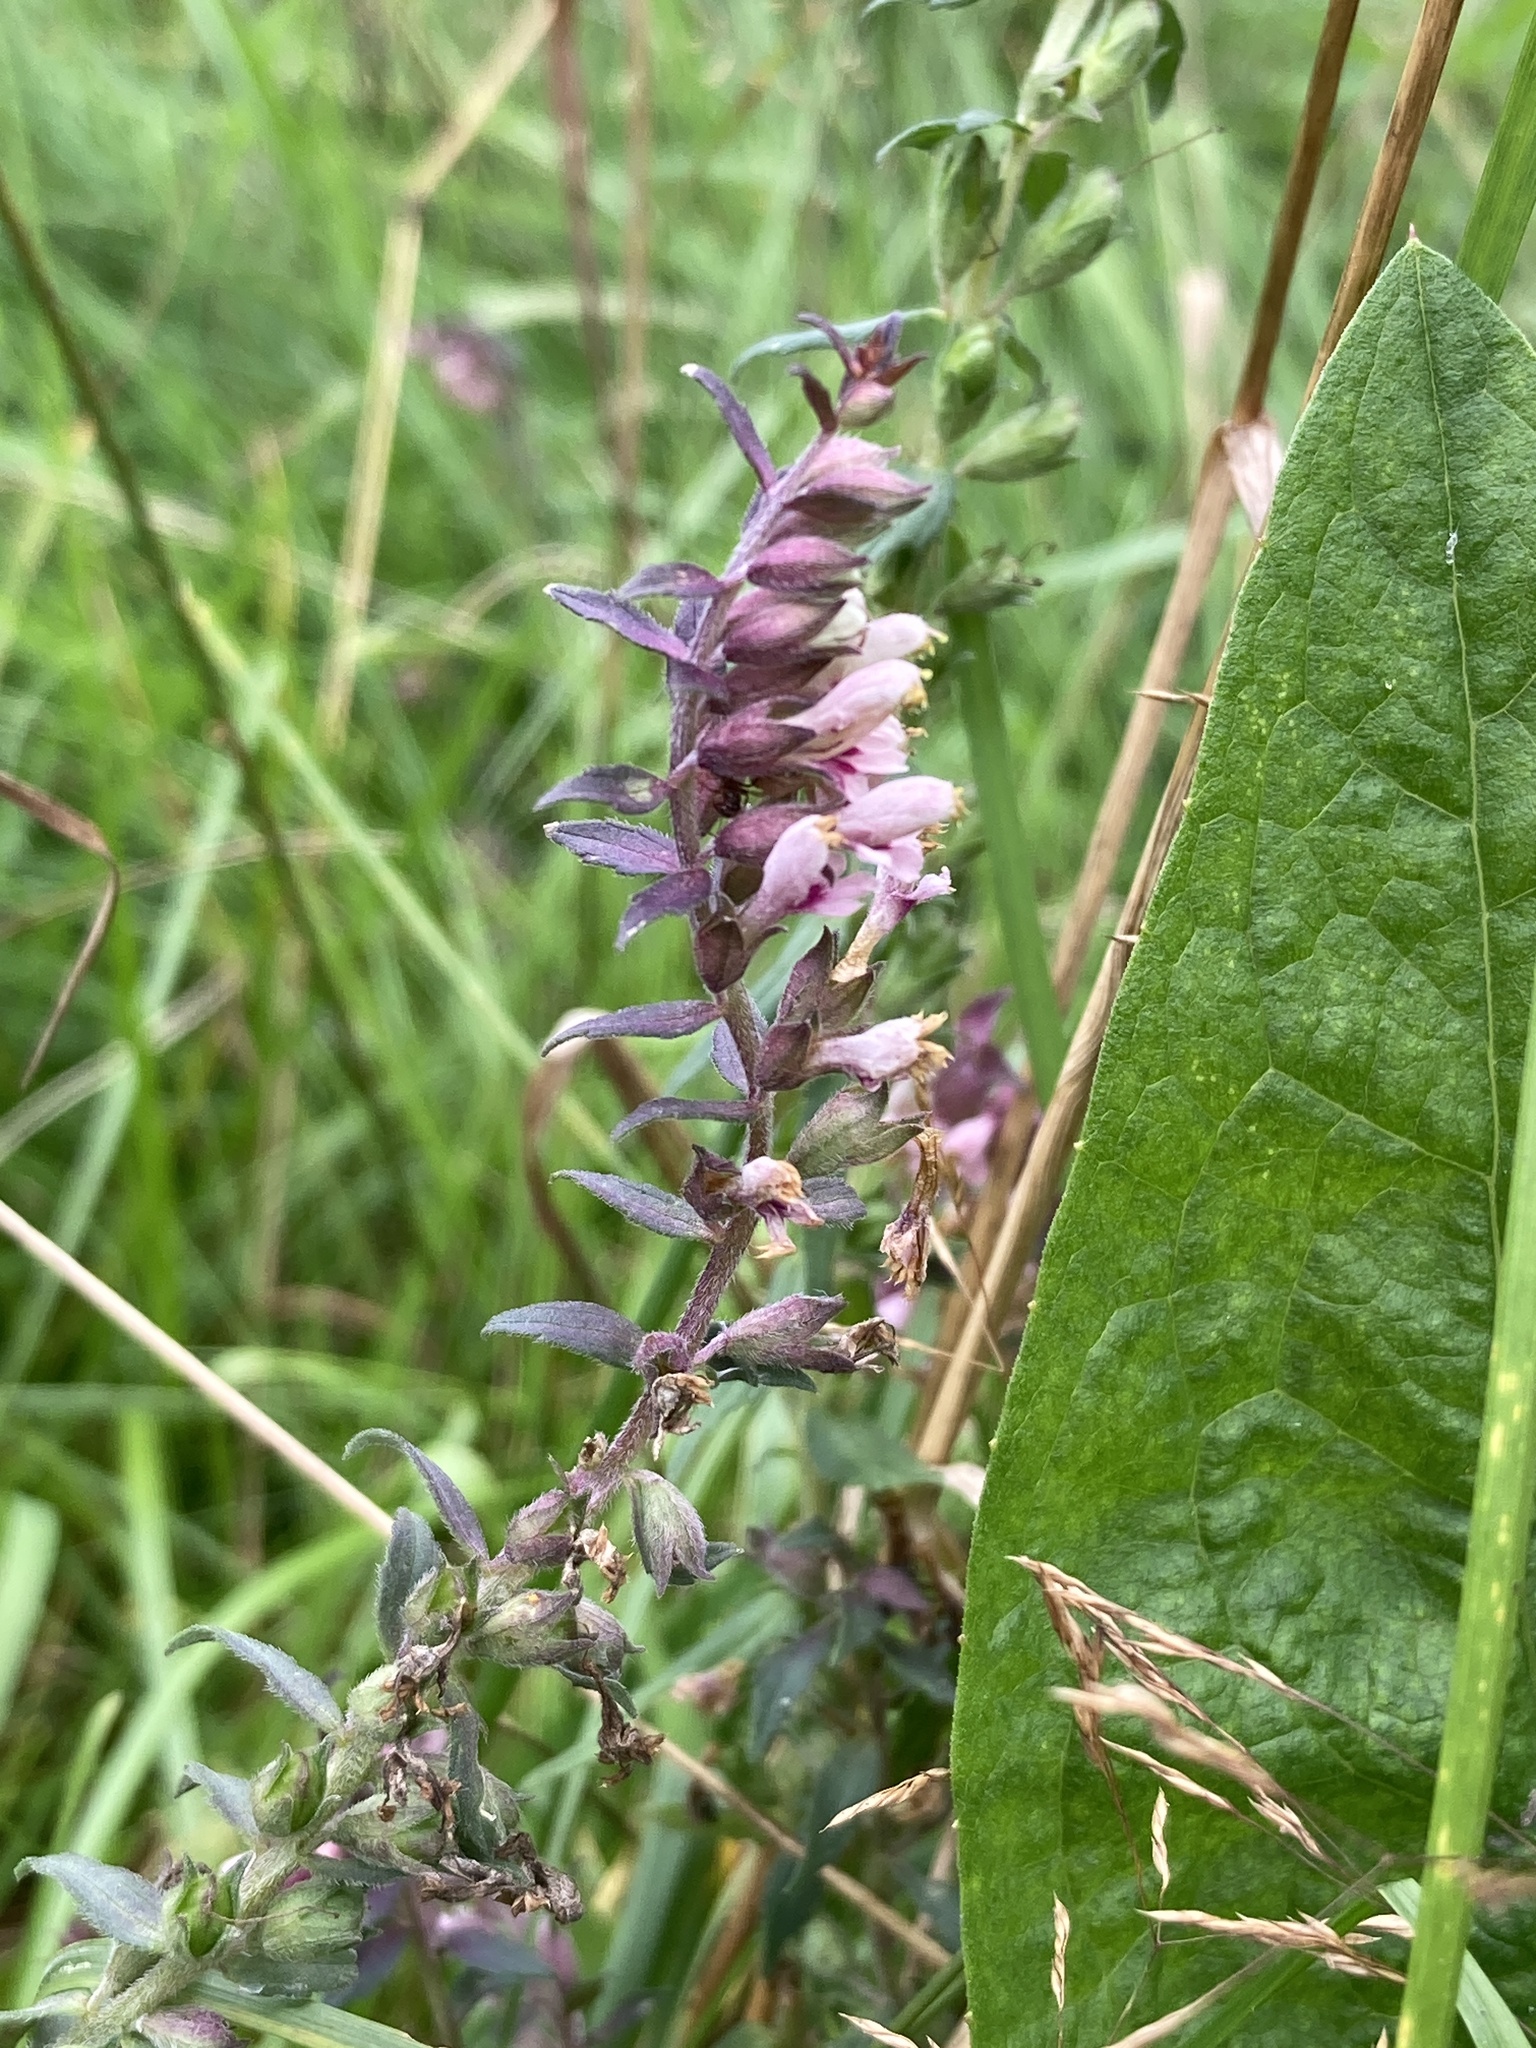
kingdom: Plantae
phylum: Tracheophyta
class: Magnoliopsida
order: Lamiales
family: Orobanchaceae
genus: Odontites
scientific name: Odontites vulgaris
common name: Broomrape
